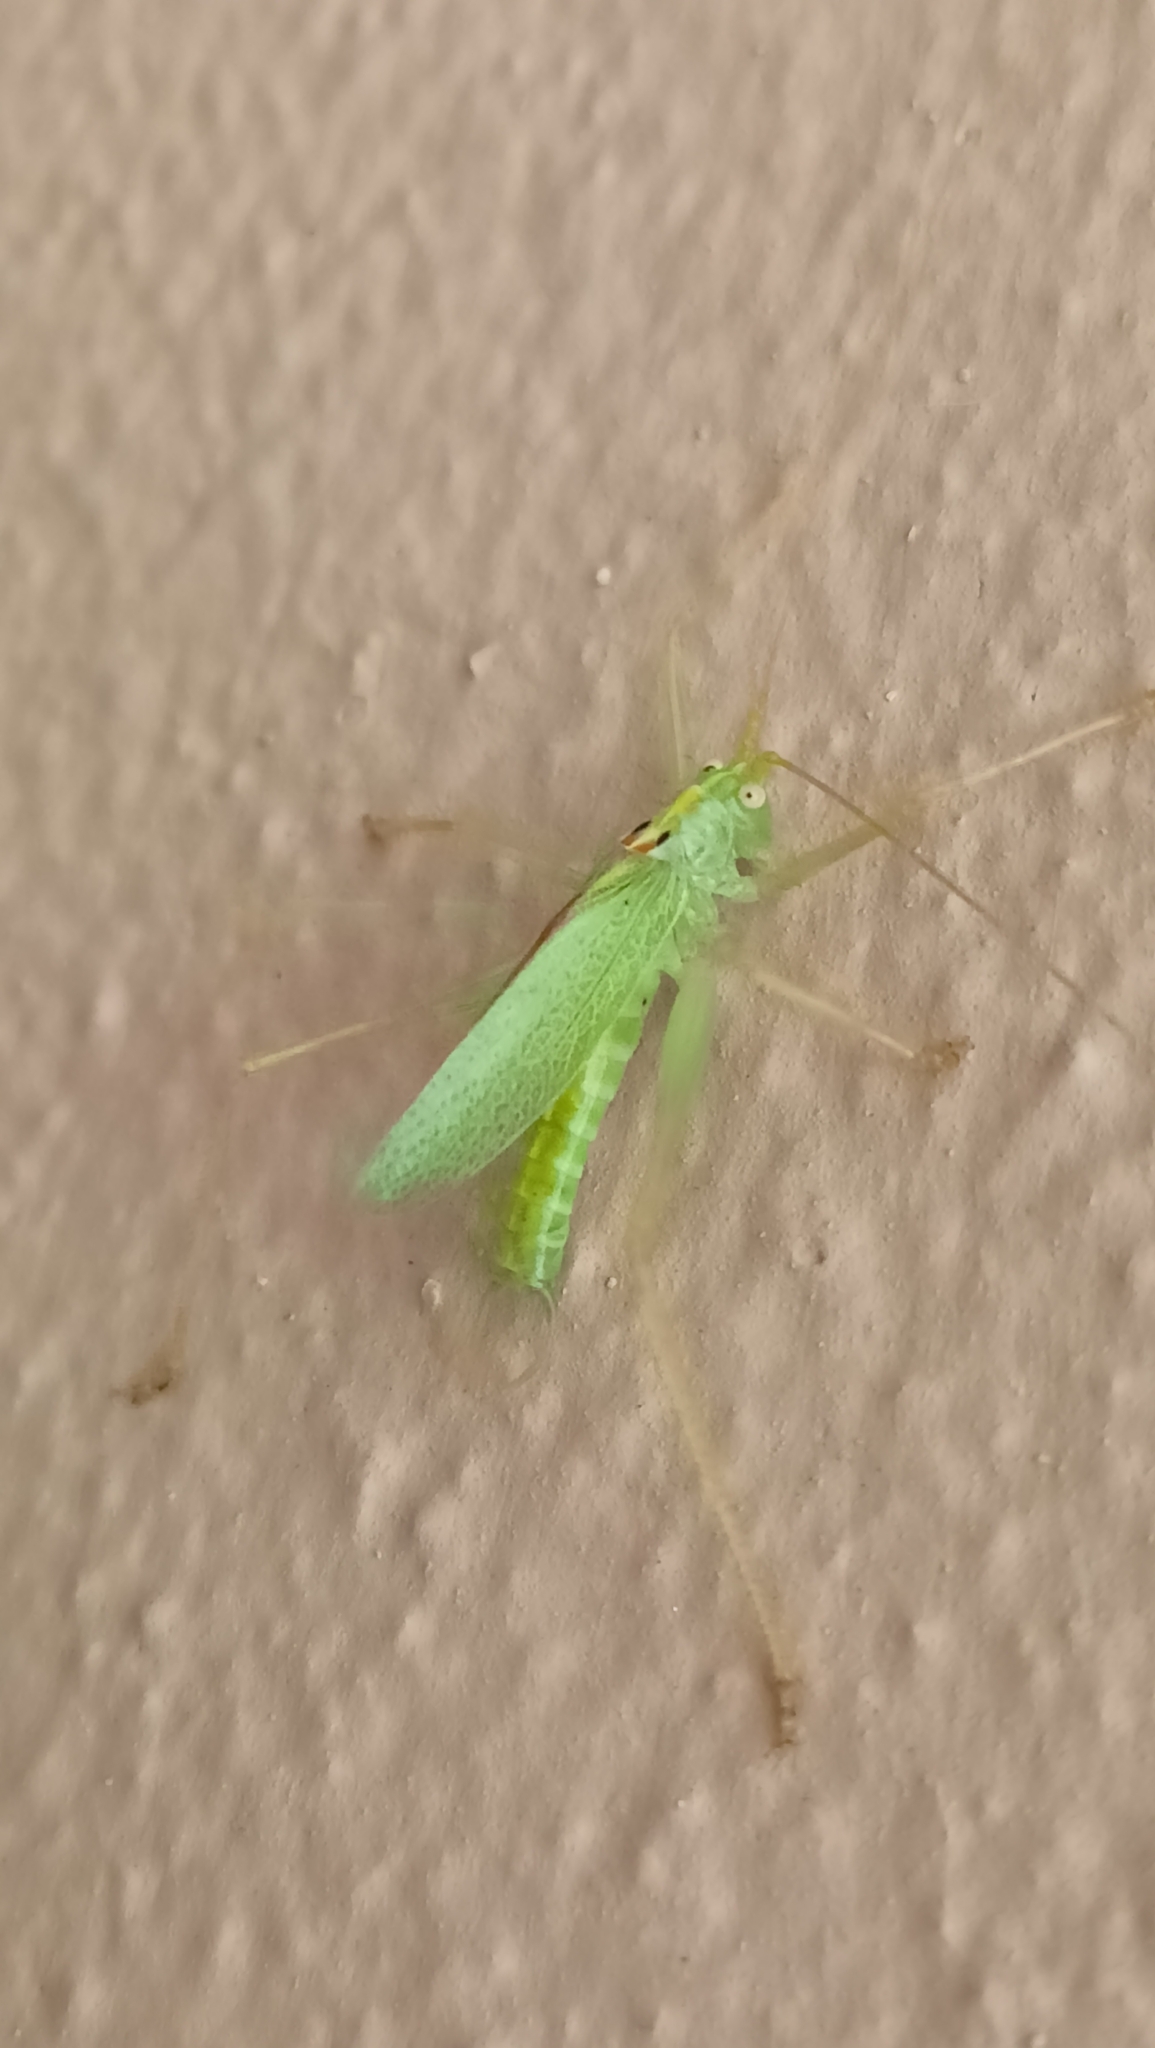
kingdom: Animalia
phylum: Arthropoda
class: Insecta
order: Orthoptera
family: Tettigoniidae
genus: Meconema
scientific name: Meconema thalassinum
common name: Oak bush-cricket
